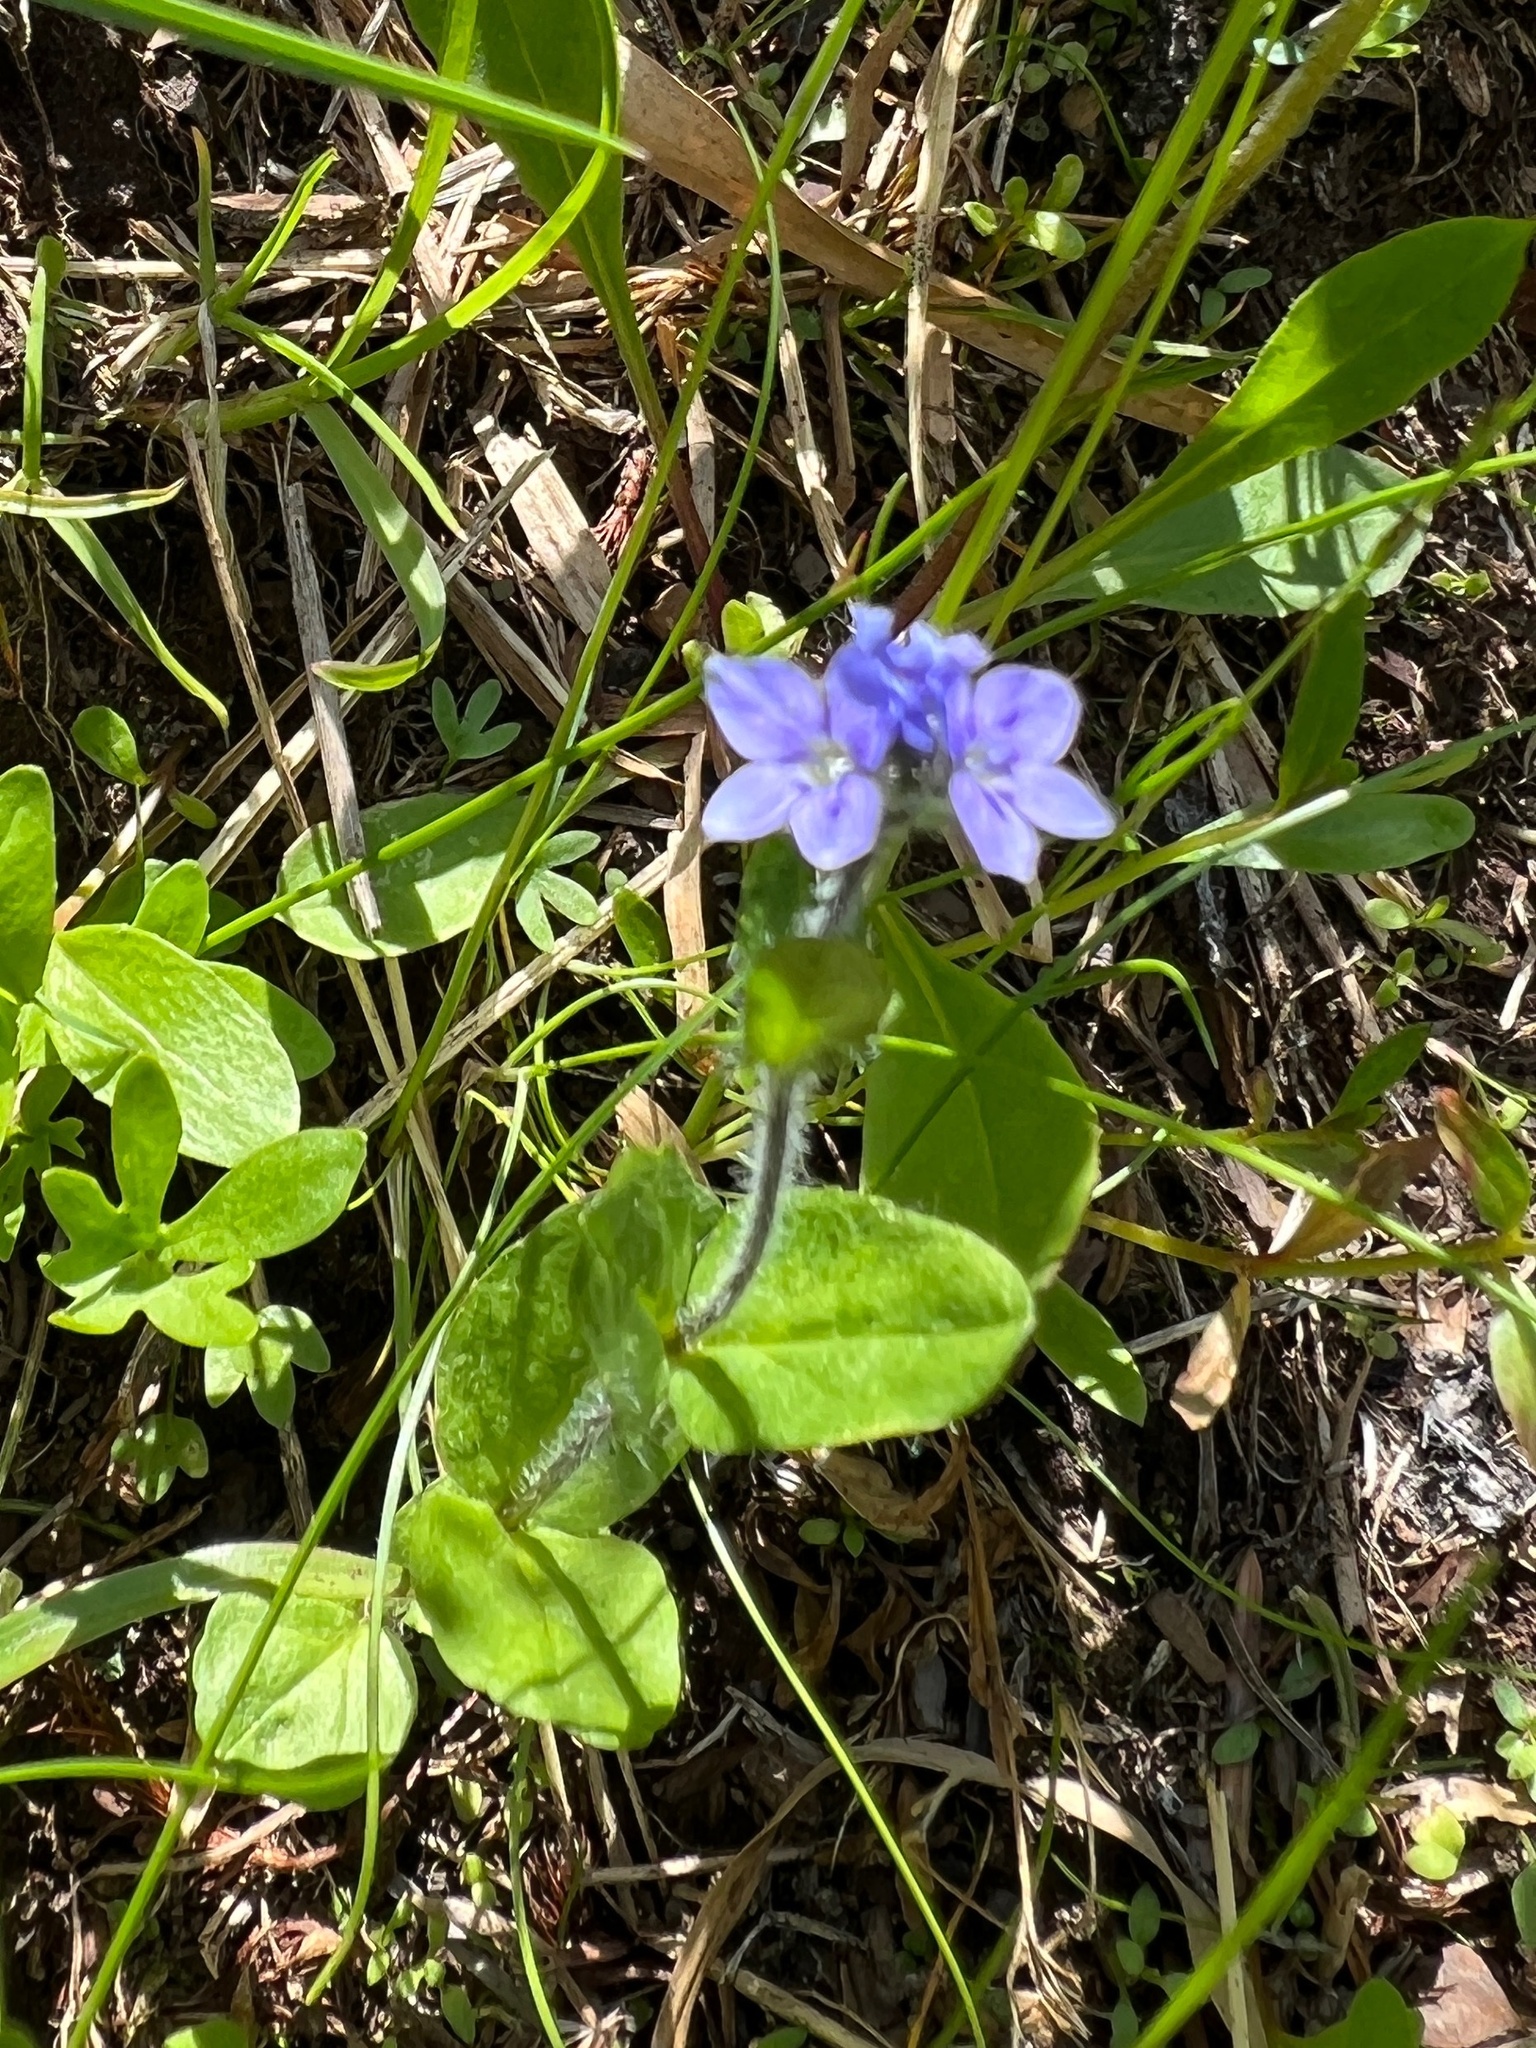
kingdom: Plantae
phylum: Tracheophyta
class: Magnoliopsida
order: Lamiales
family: Plantaginaceae
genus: Veronica
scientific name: Veronica wormskjoldii
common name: American alpine speedwell
